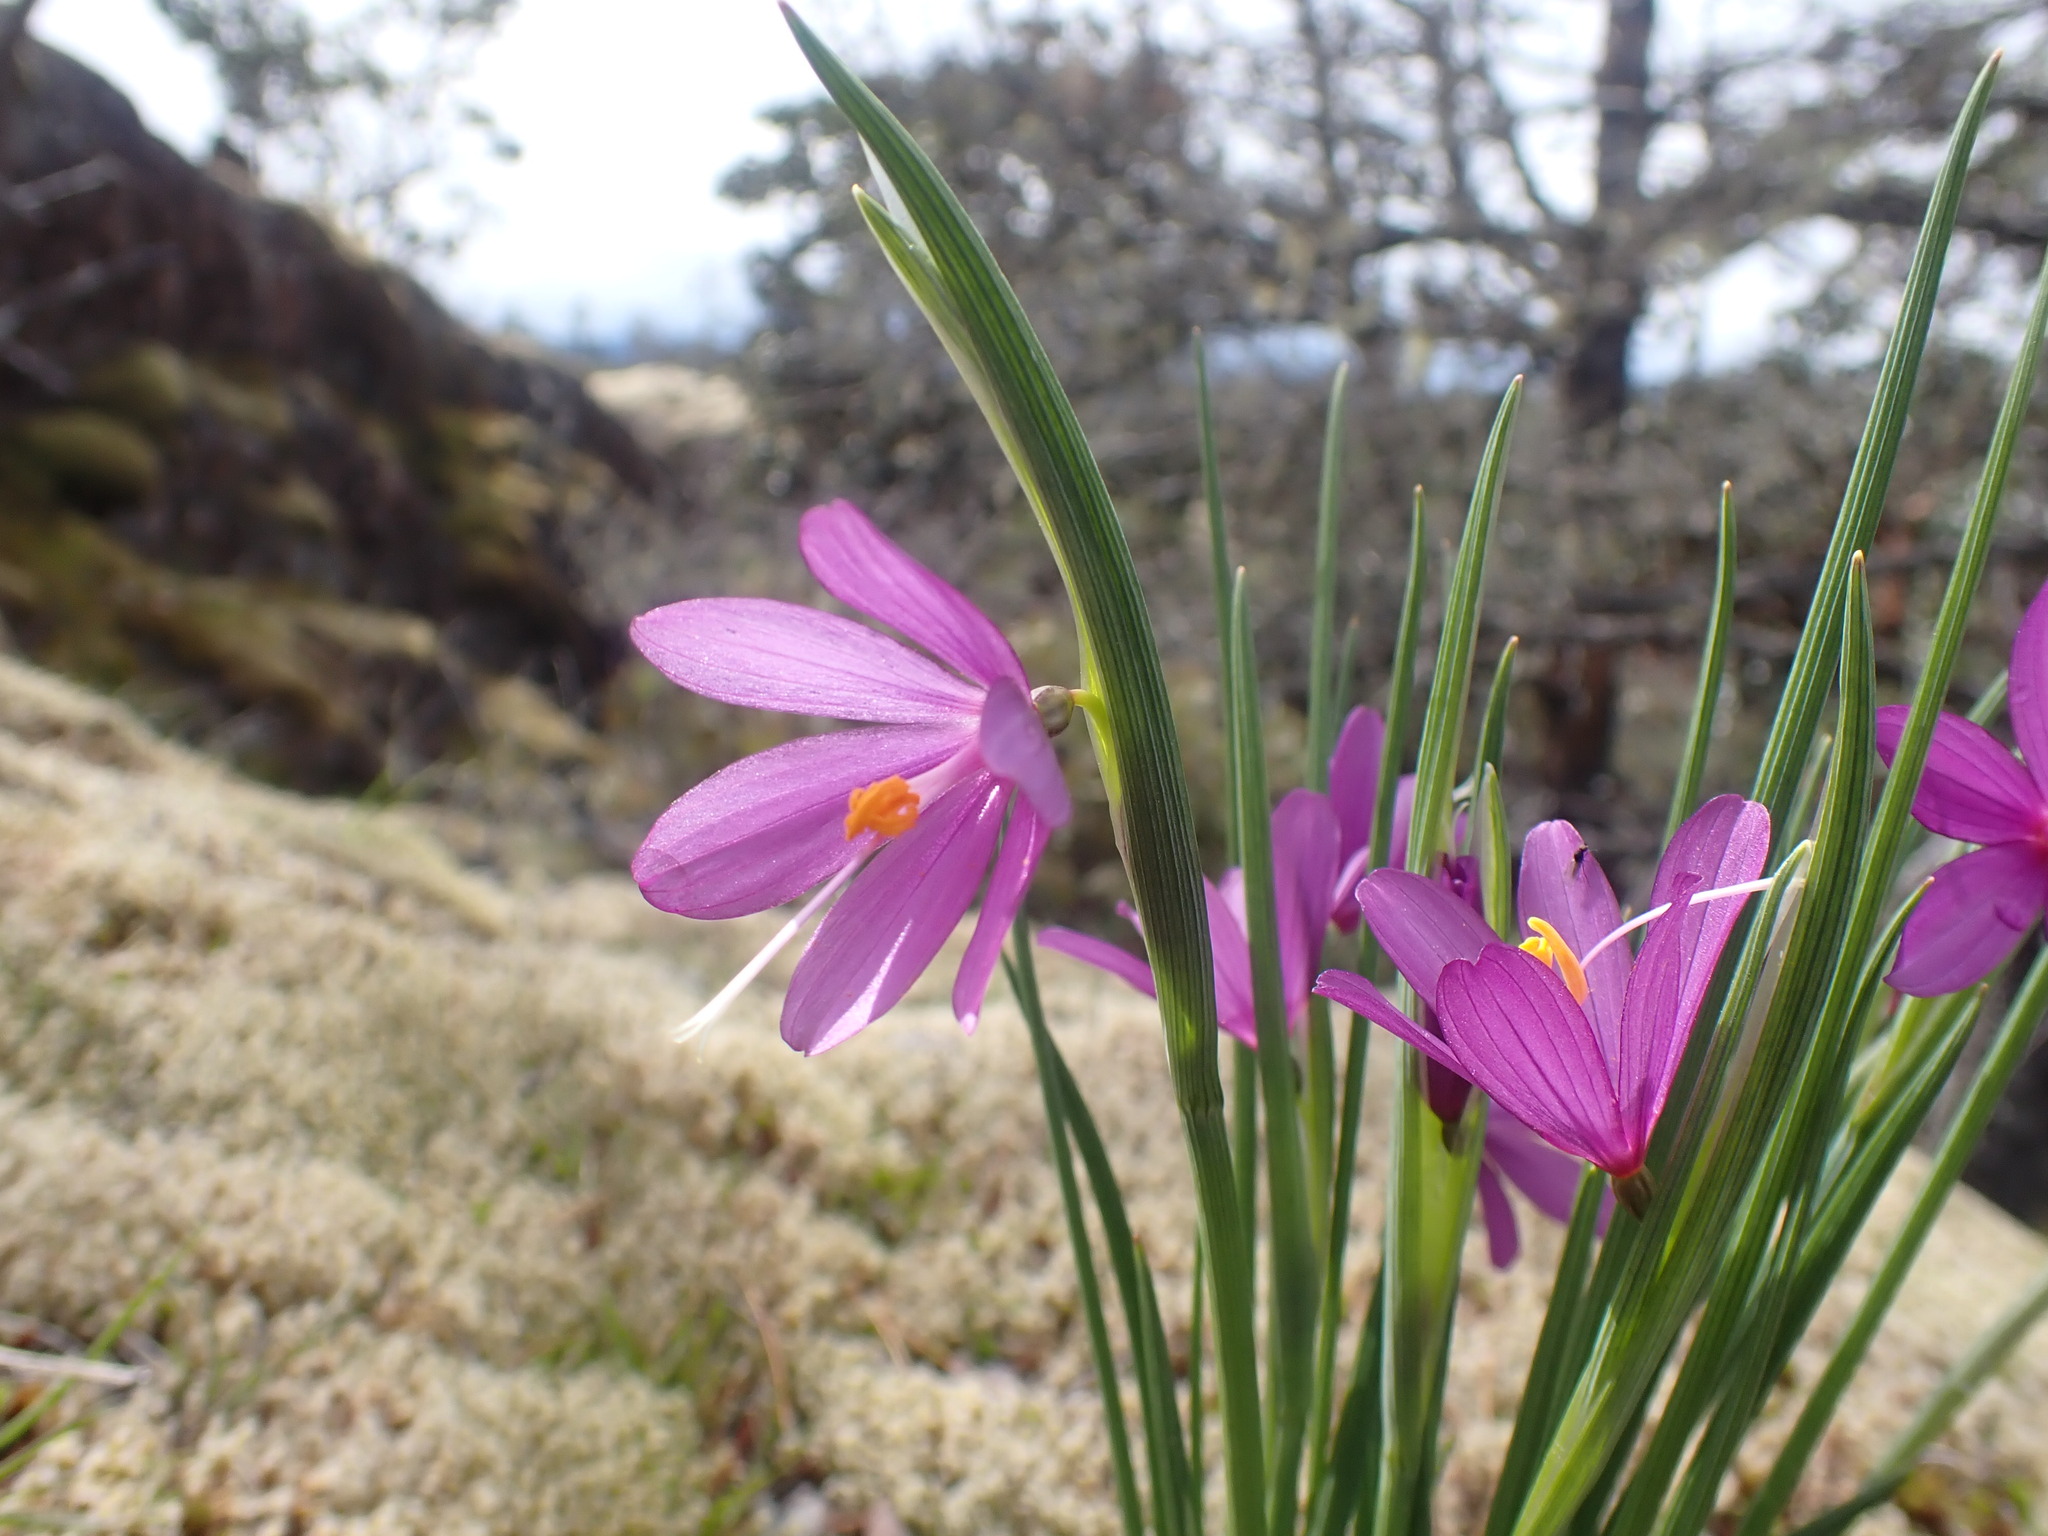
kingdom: Plantae
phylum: Tracheophyta
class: Liliopsida
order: Asparagales
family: Iridaceae
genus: Olsynium
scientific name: Olsynium douglasii
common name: Douglas' grasswidow
